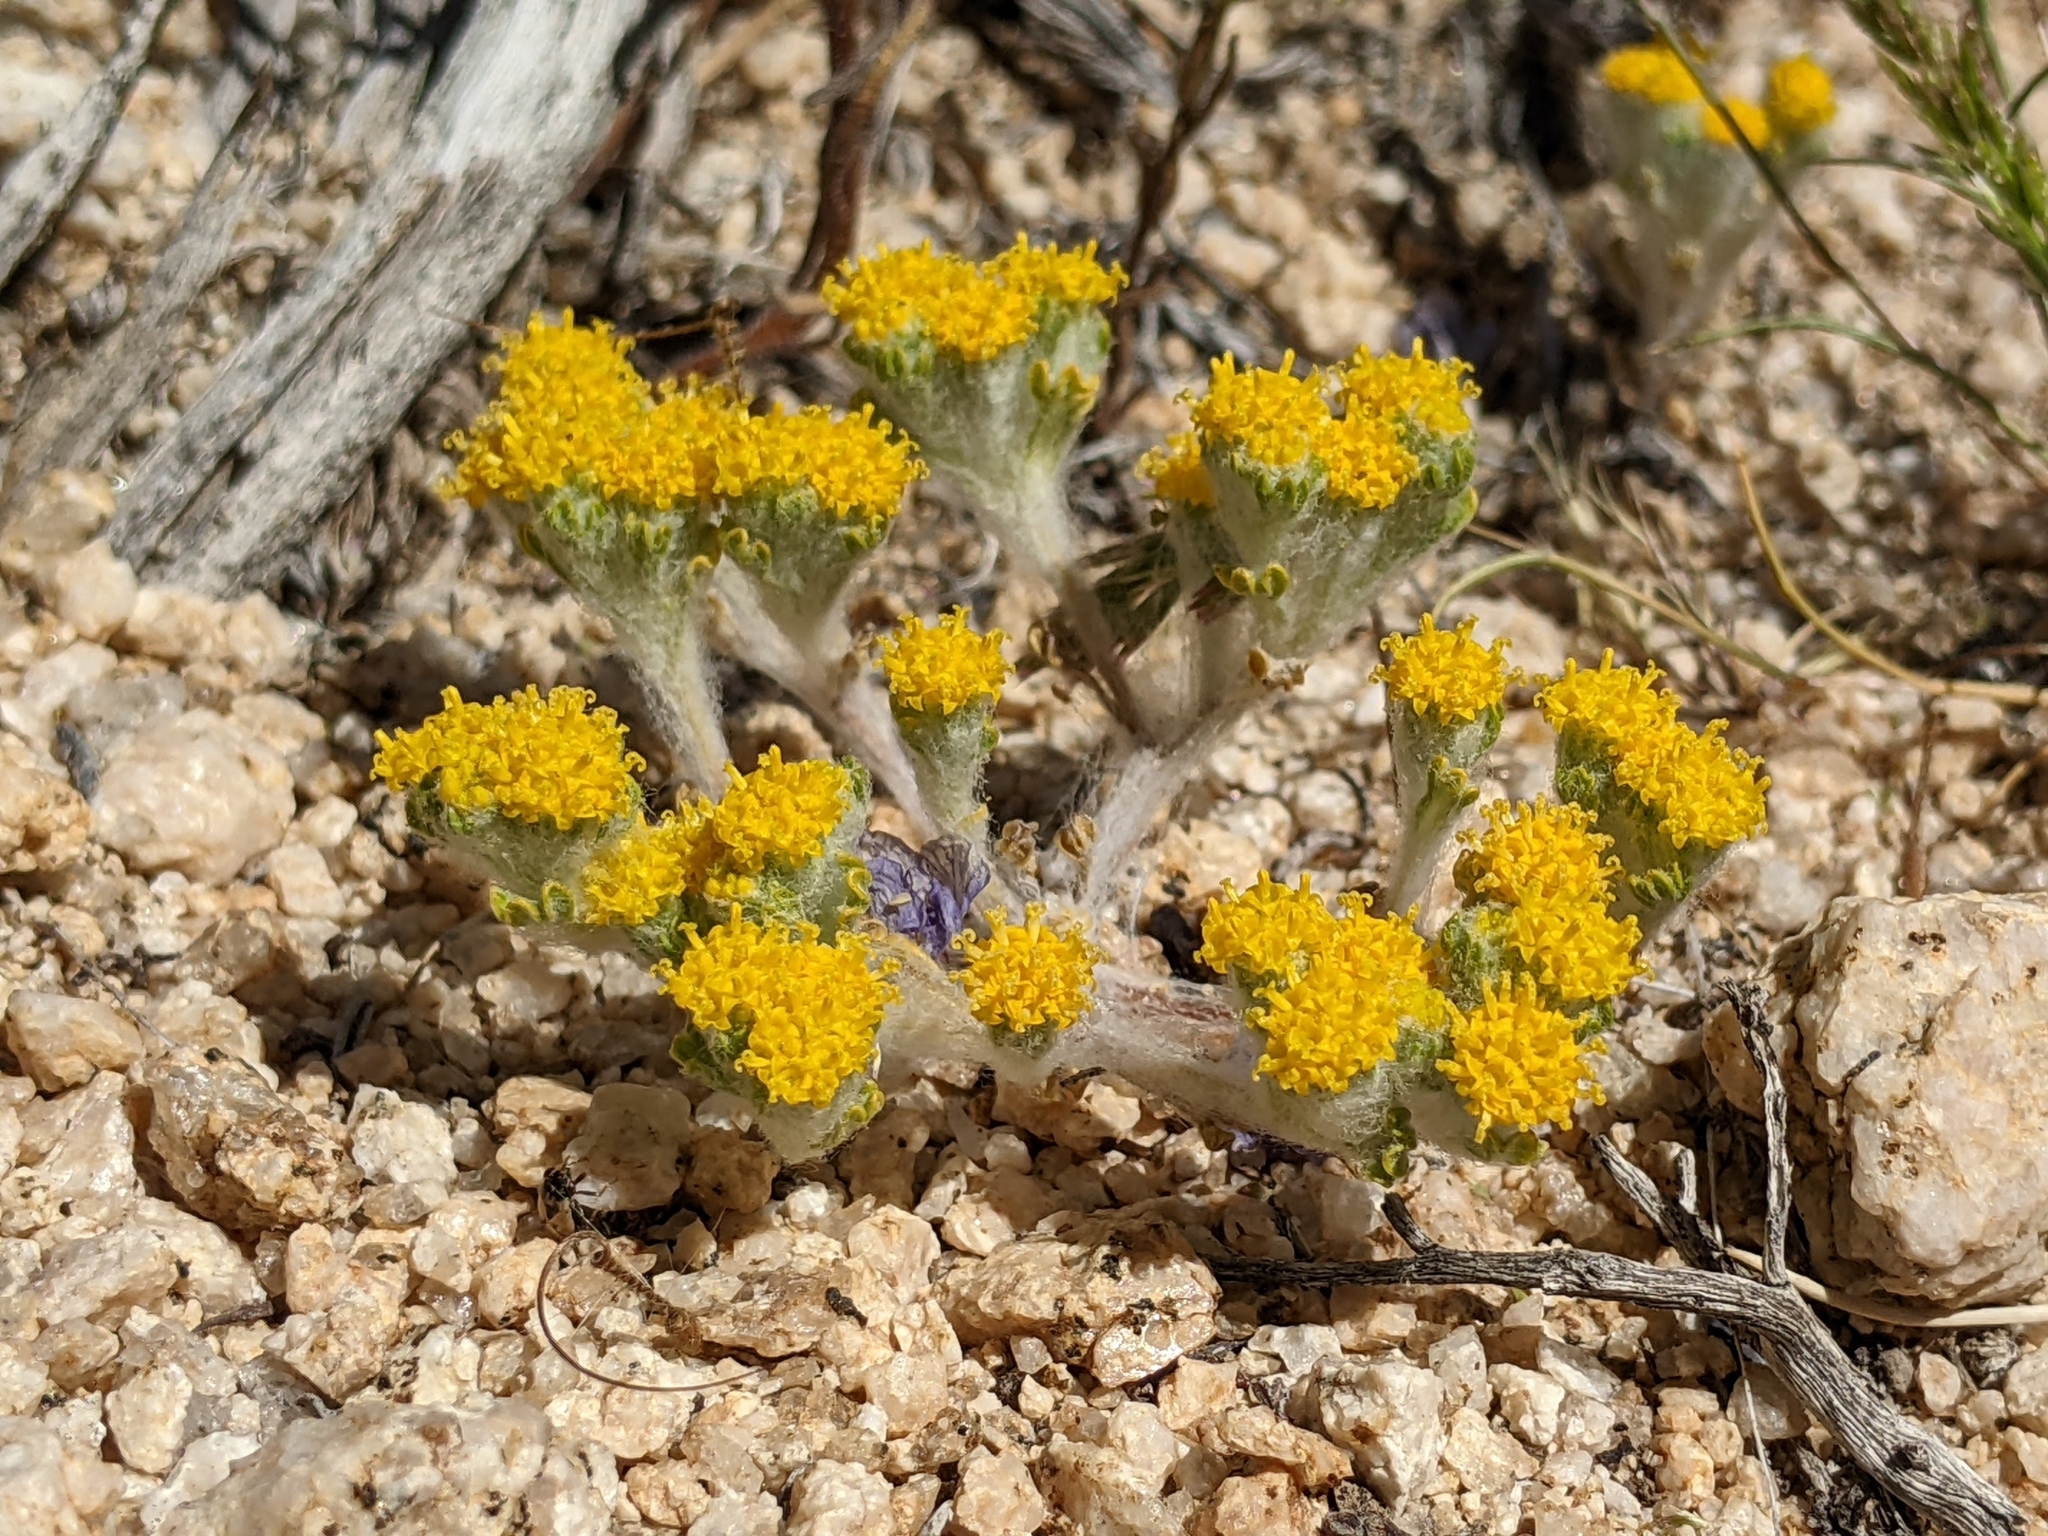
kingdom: Plantae
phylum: Tracheophyta
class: Magnoliopsida
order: Asterales
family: Asteraceae
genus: Eriophyllum
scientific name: Eriophyllum pringlei
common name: Pringle's woolly-sunflower
